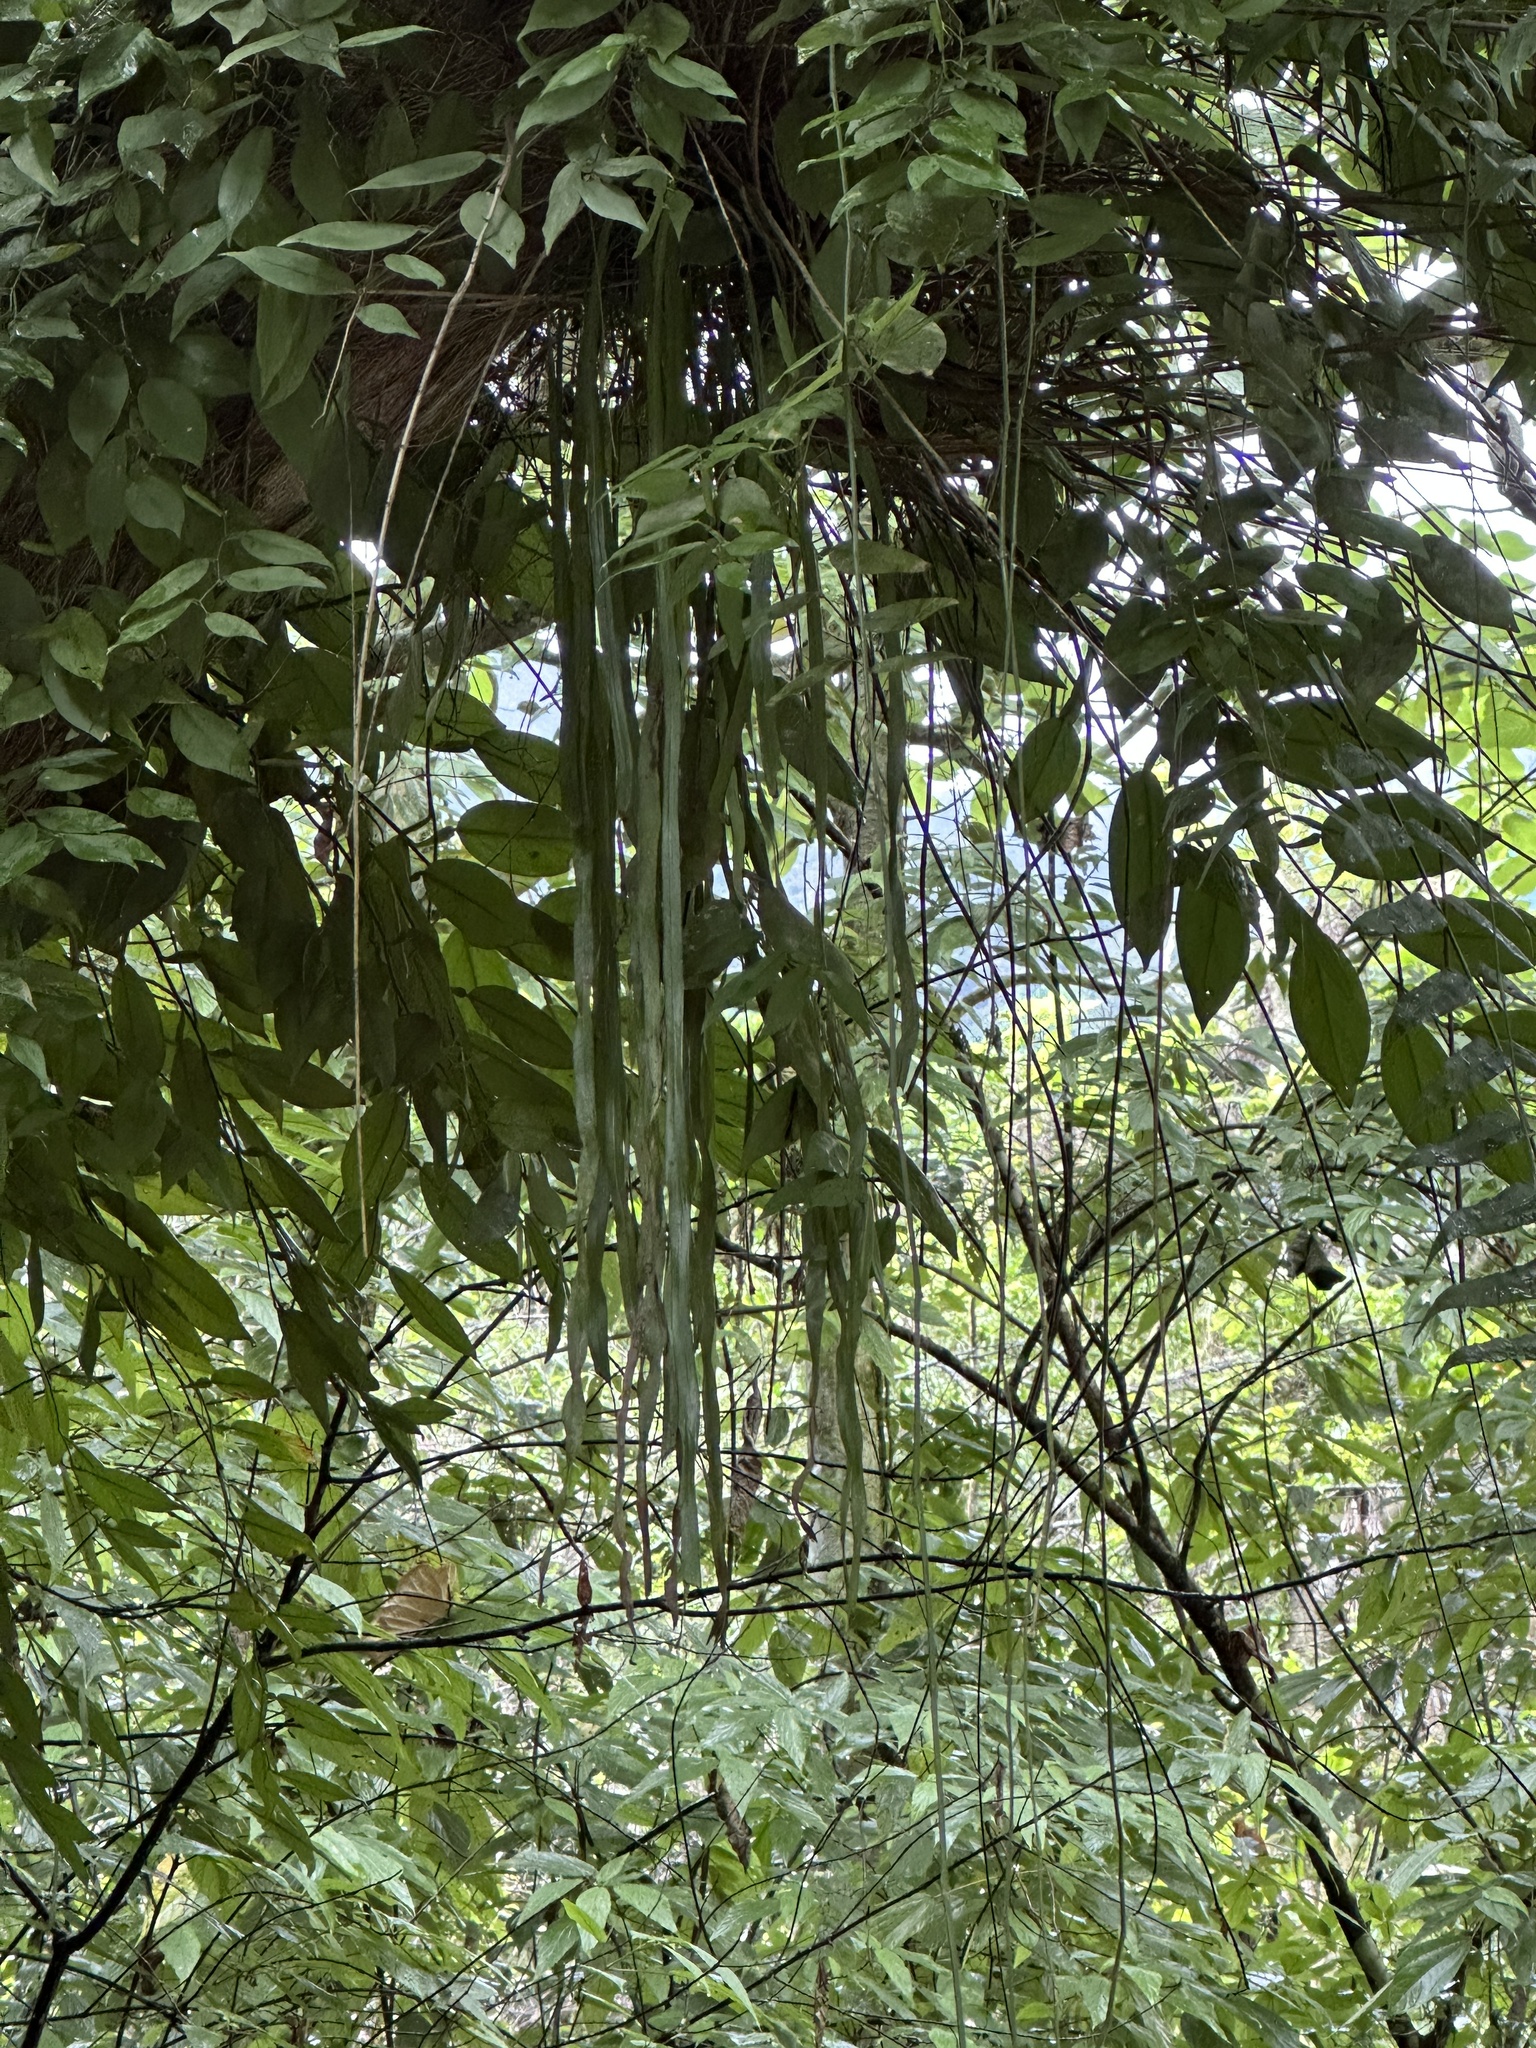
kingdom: Plantae
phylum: Tracheophyta
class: Polypodiopsida
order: Polypodiales
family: Pteridaceae
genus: Haplopteris
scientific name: Haplopteris elongata
